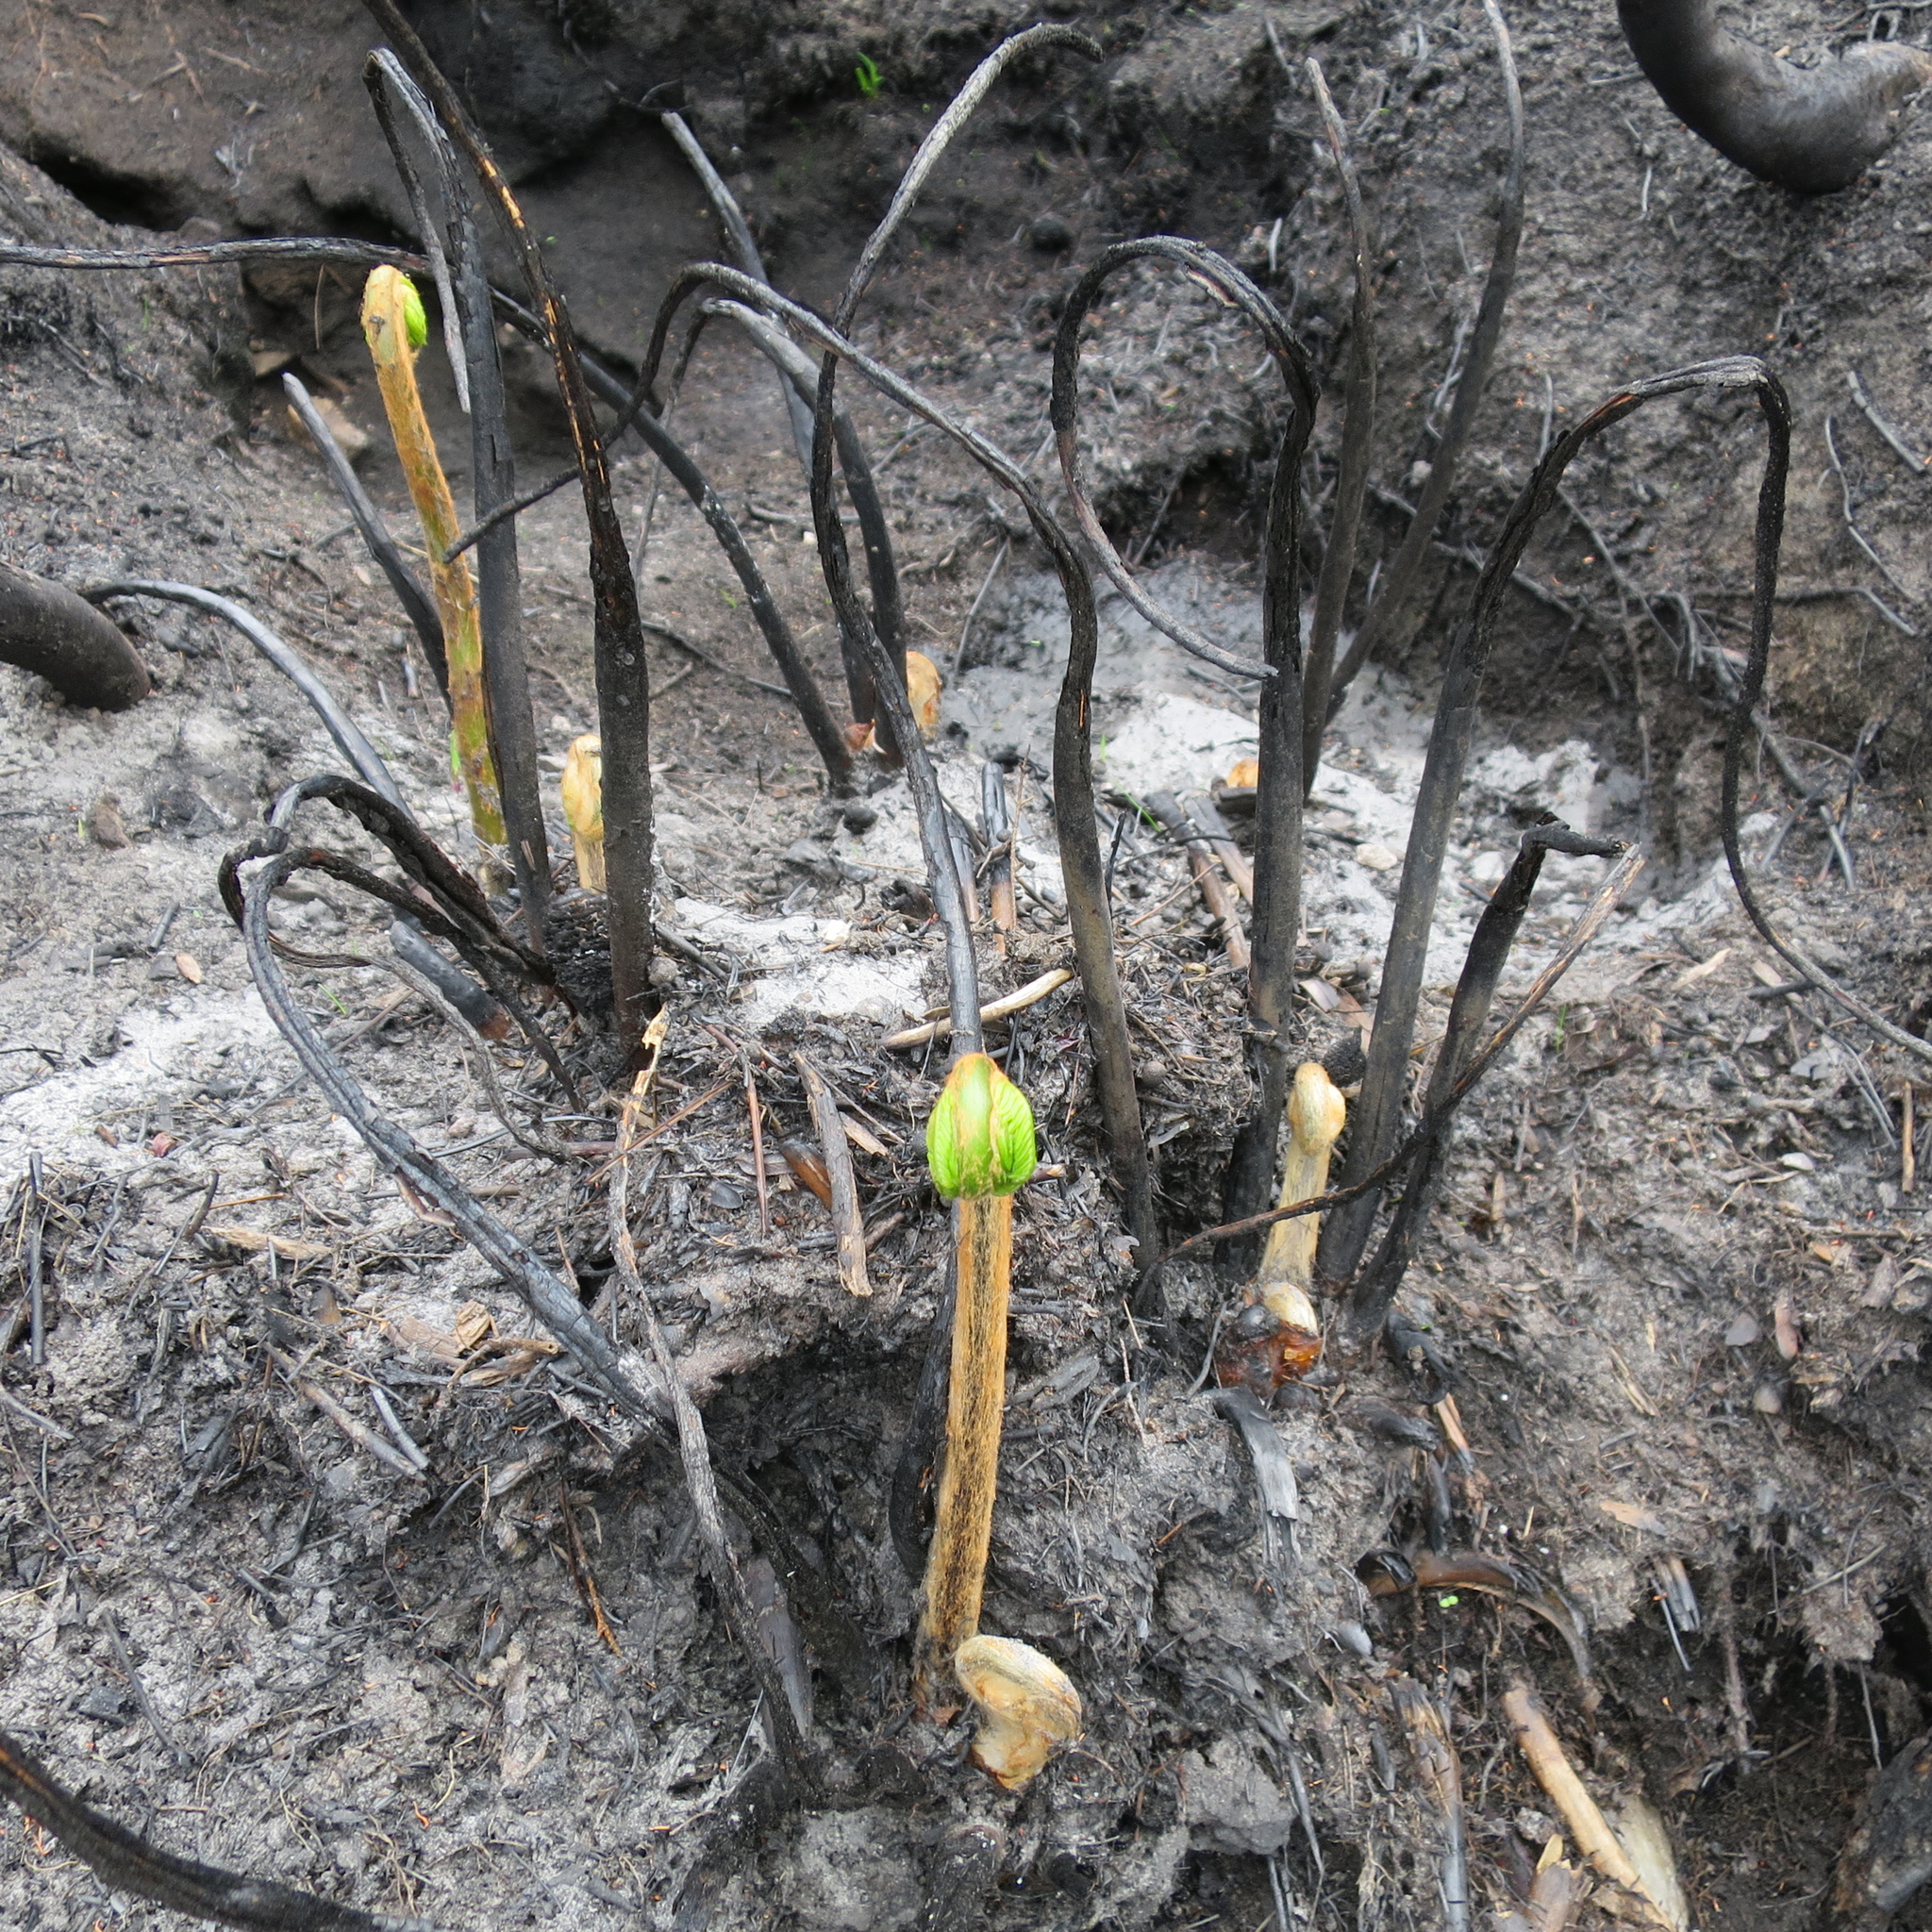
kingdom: Plantae
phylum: Tracheophyta
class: Polypodiopsida
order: Osmundales
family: Osmundaceae
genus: Todea
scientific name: Todea barbara
